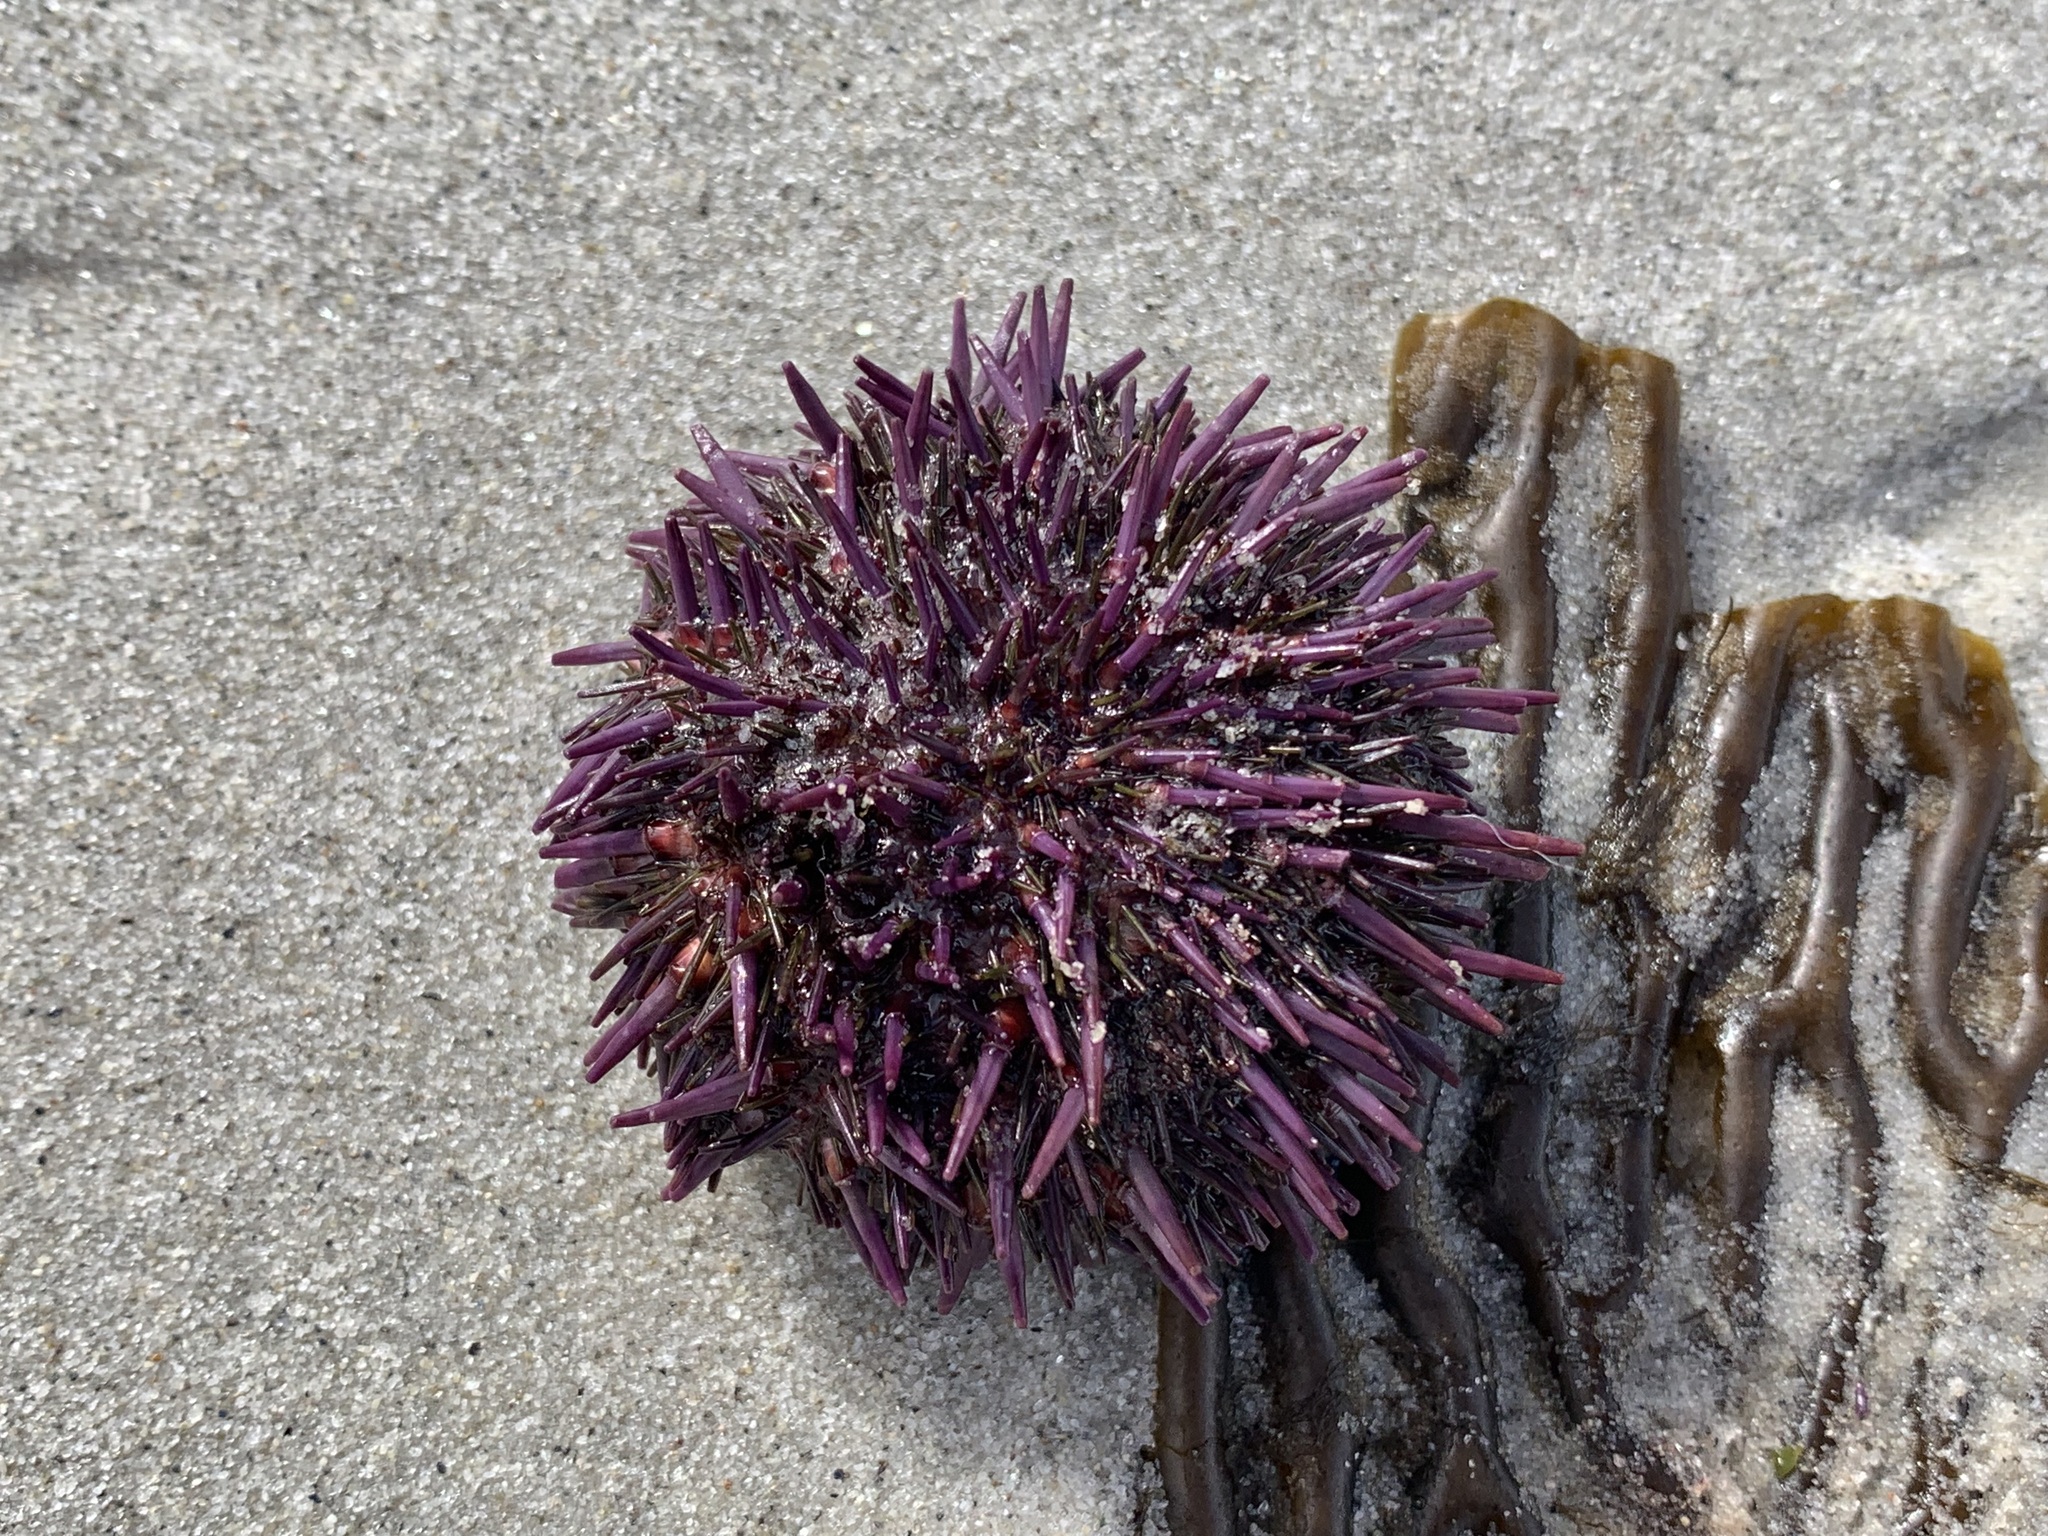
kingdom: Animalia
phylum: Echinodermata
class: Echinoidea
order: Camarodonta
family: Strongylocentrotidae
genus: Strongylocentrotus
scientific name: Strongylocentrotus purpuratus
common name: Purple sea urchin
